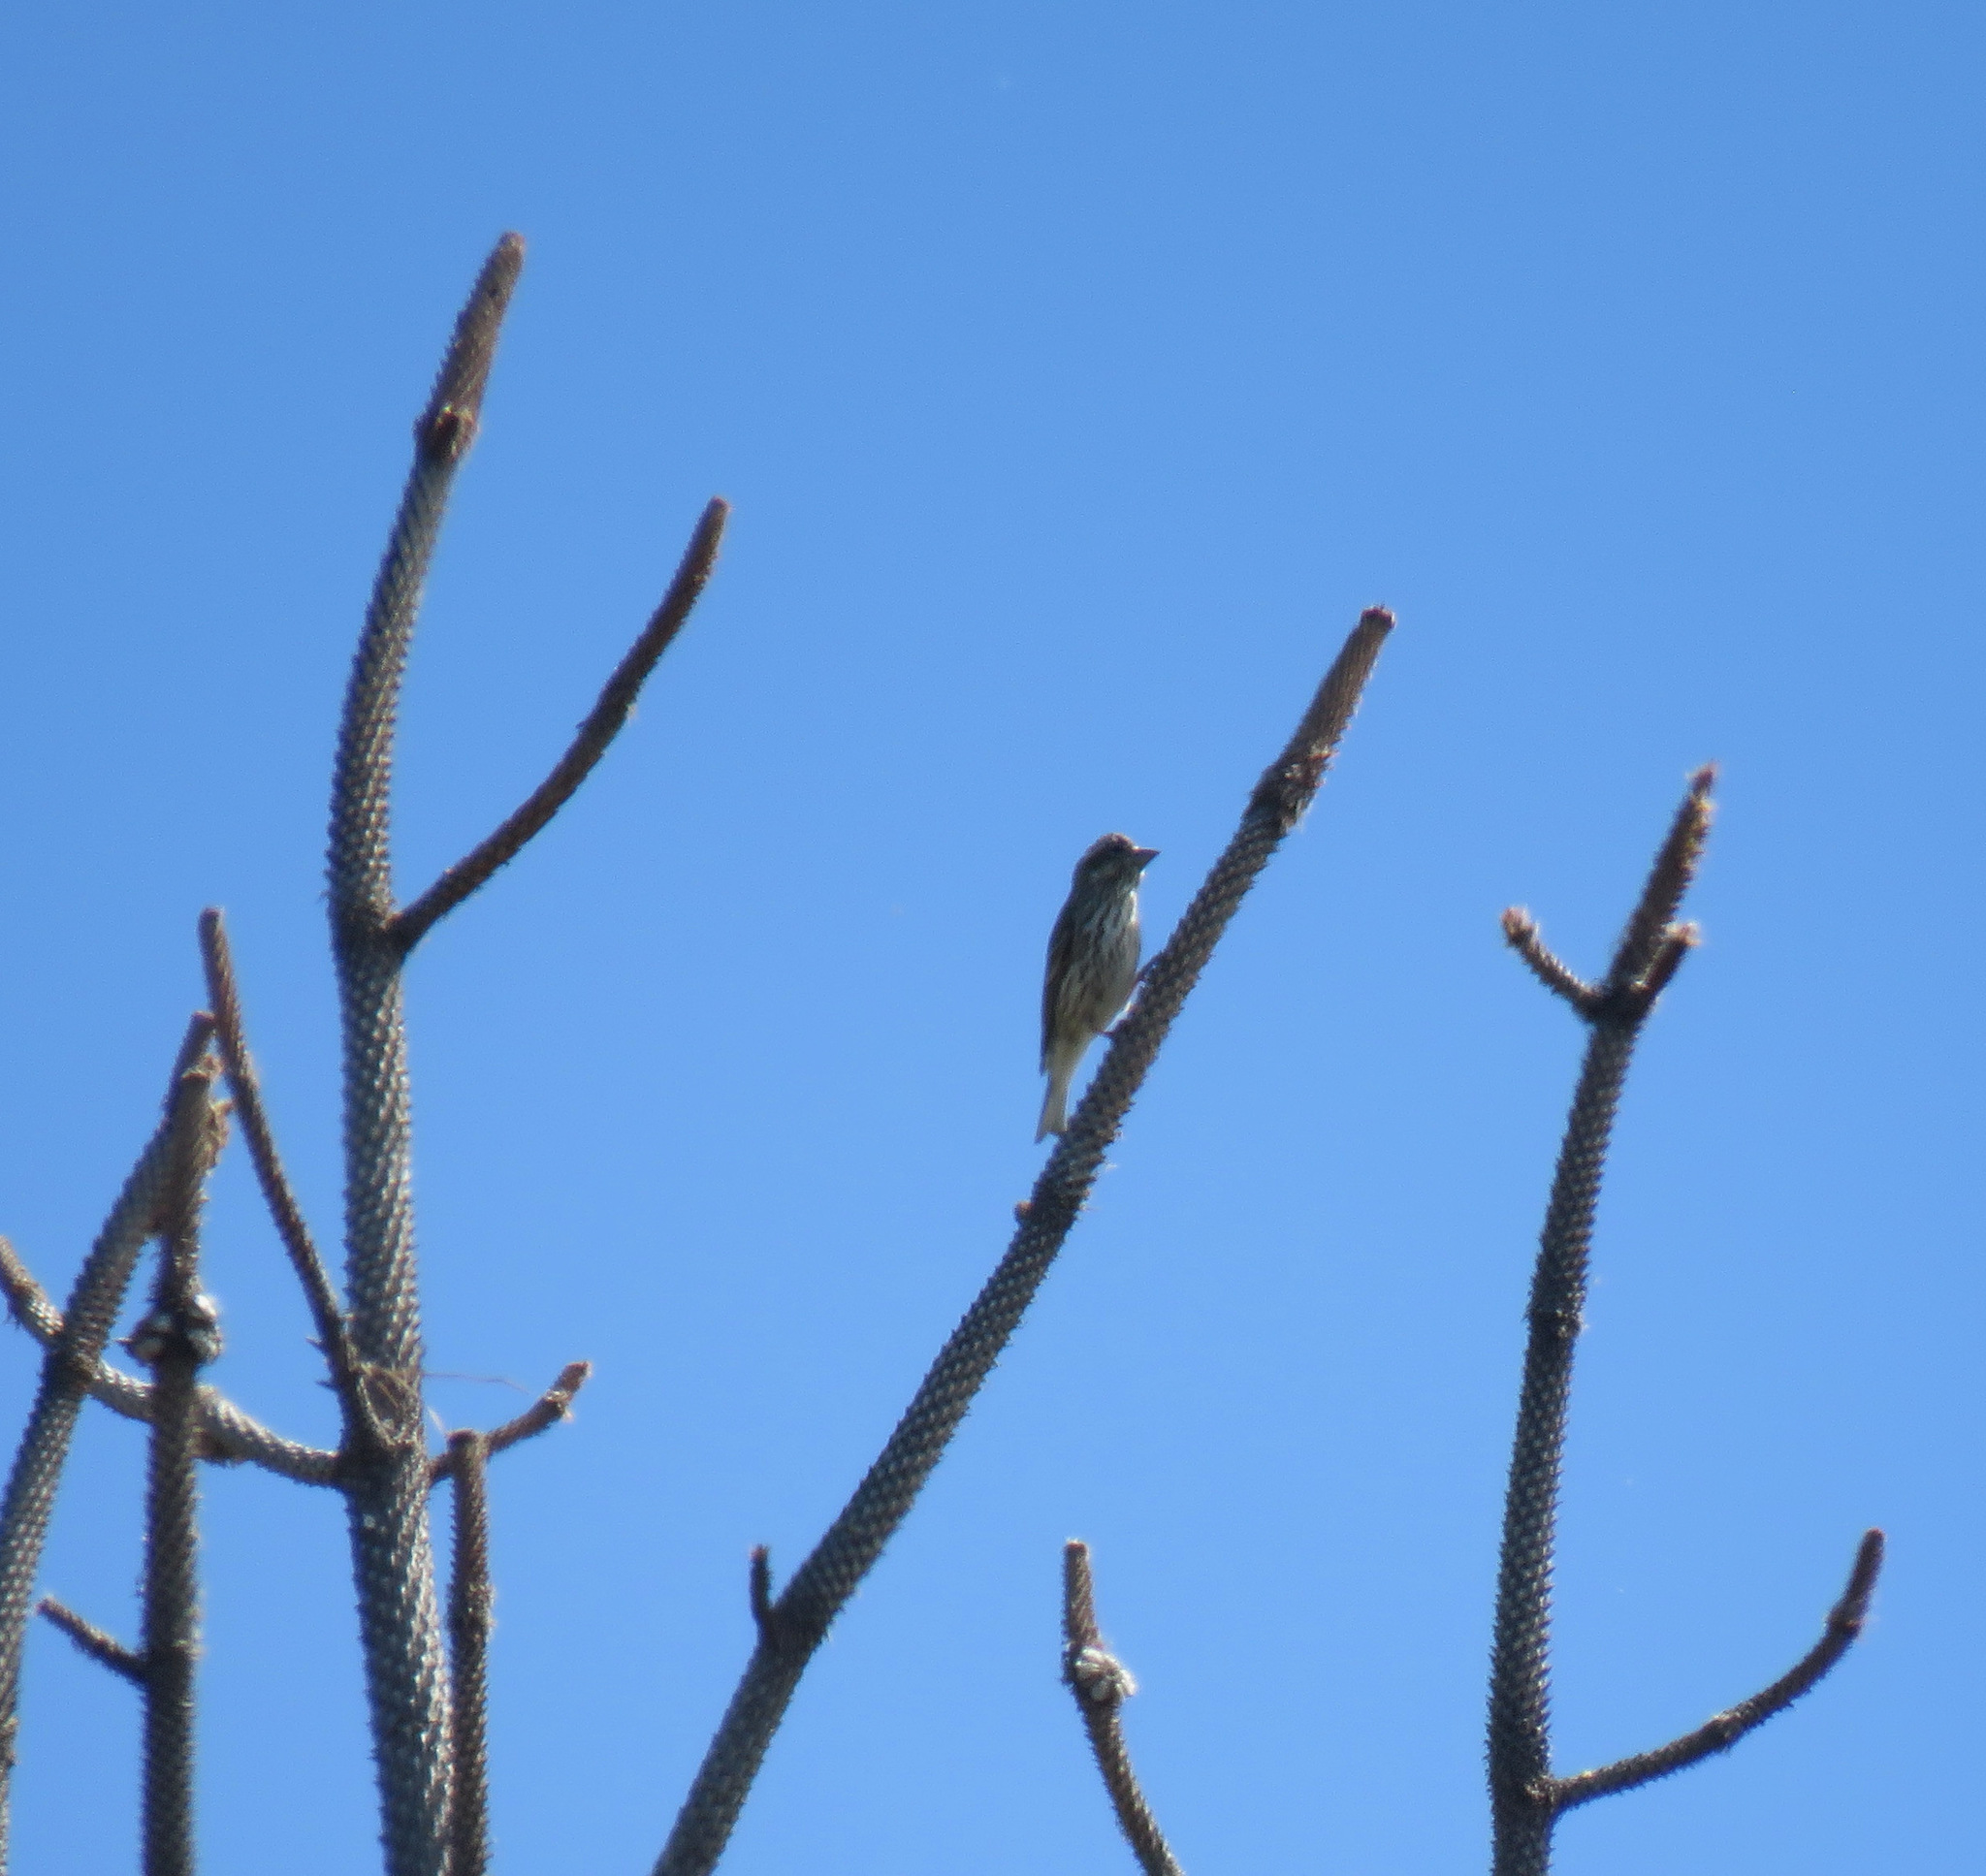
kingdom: Animalia
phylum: Chordata
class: Aves
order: Passeriformes
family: Fringillidae
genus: Haemorhous
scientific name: Haemorhous cassinii
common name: Cassin's finch
